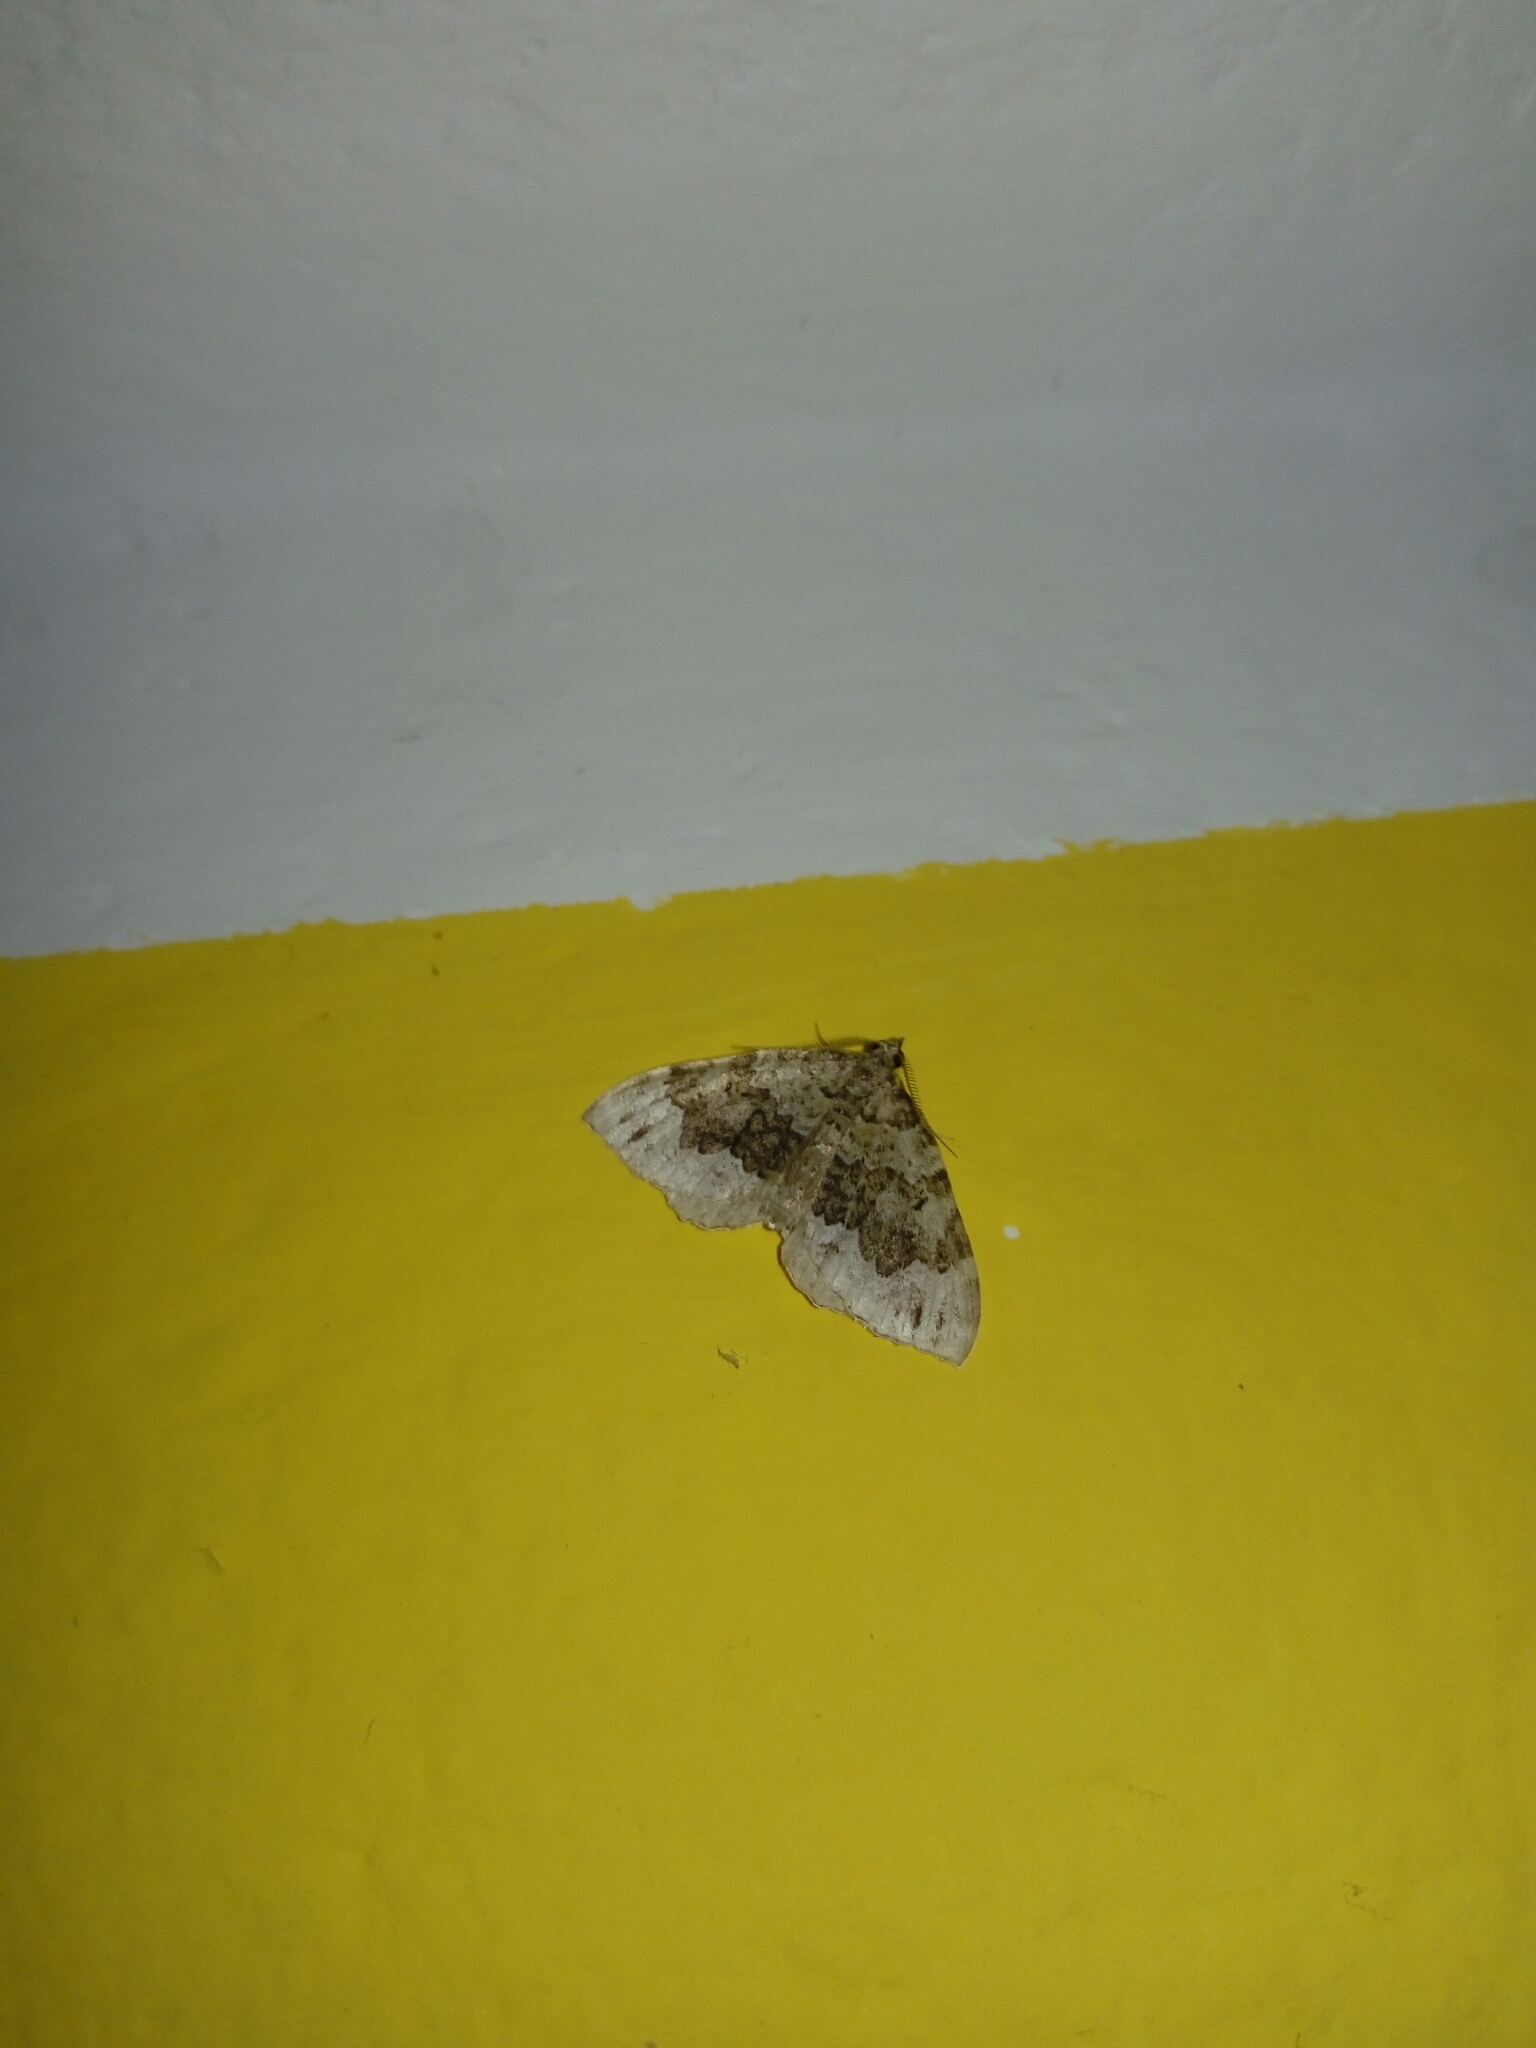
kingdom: Animalia
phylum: Arthropoda
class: Insecta
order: Lepidoptera
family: Geometridae
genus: Colostygia
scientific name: Colostygia aptata
